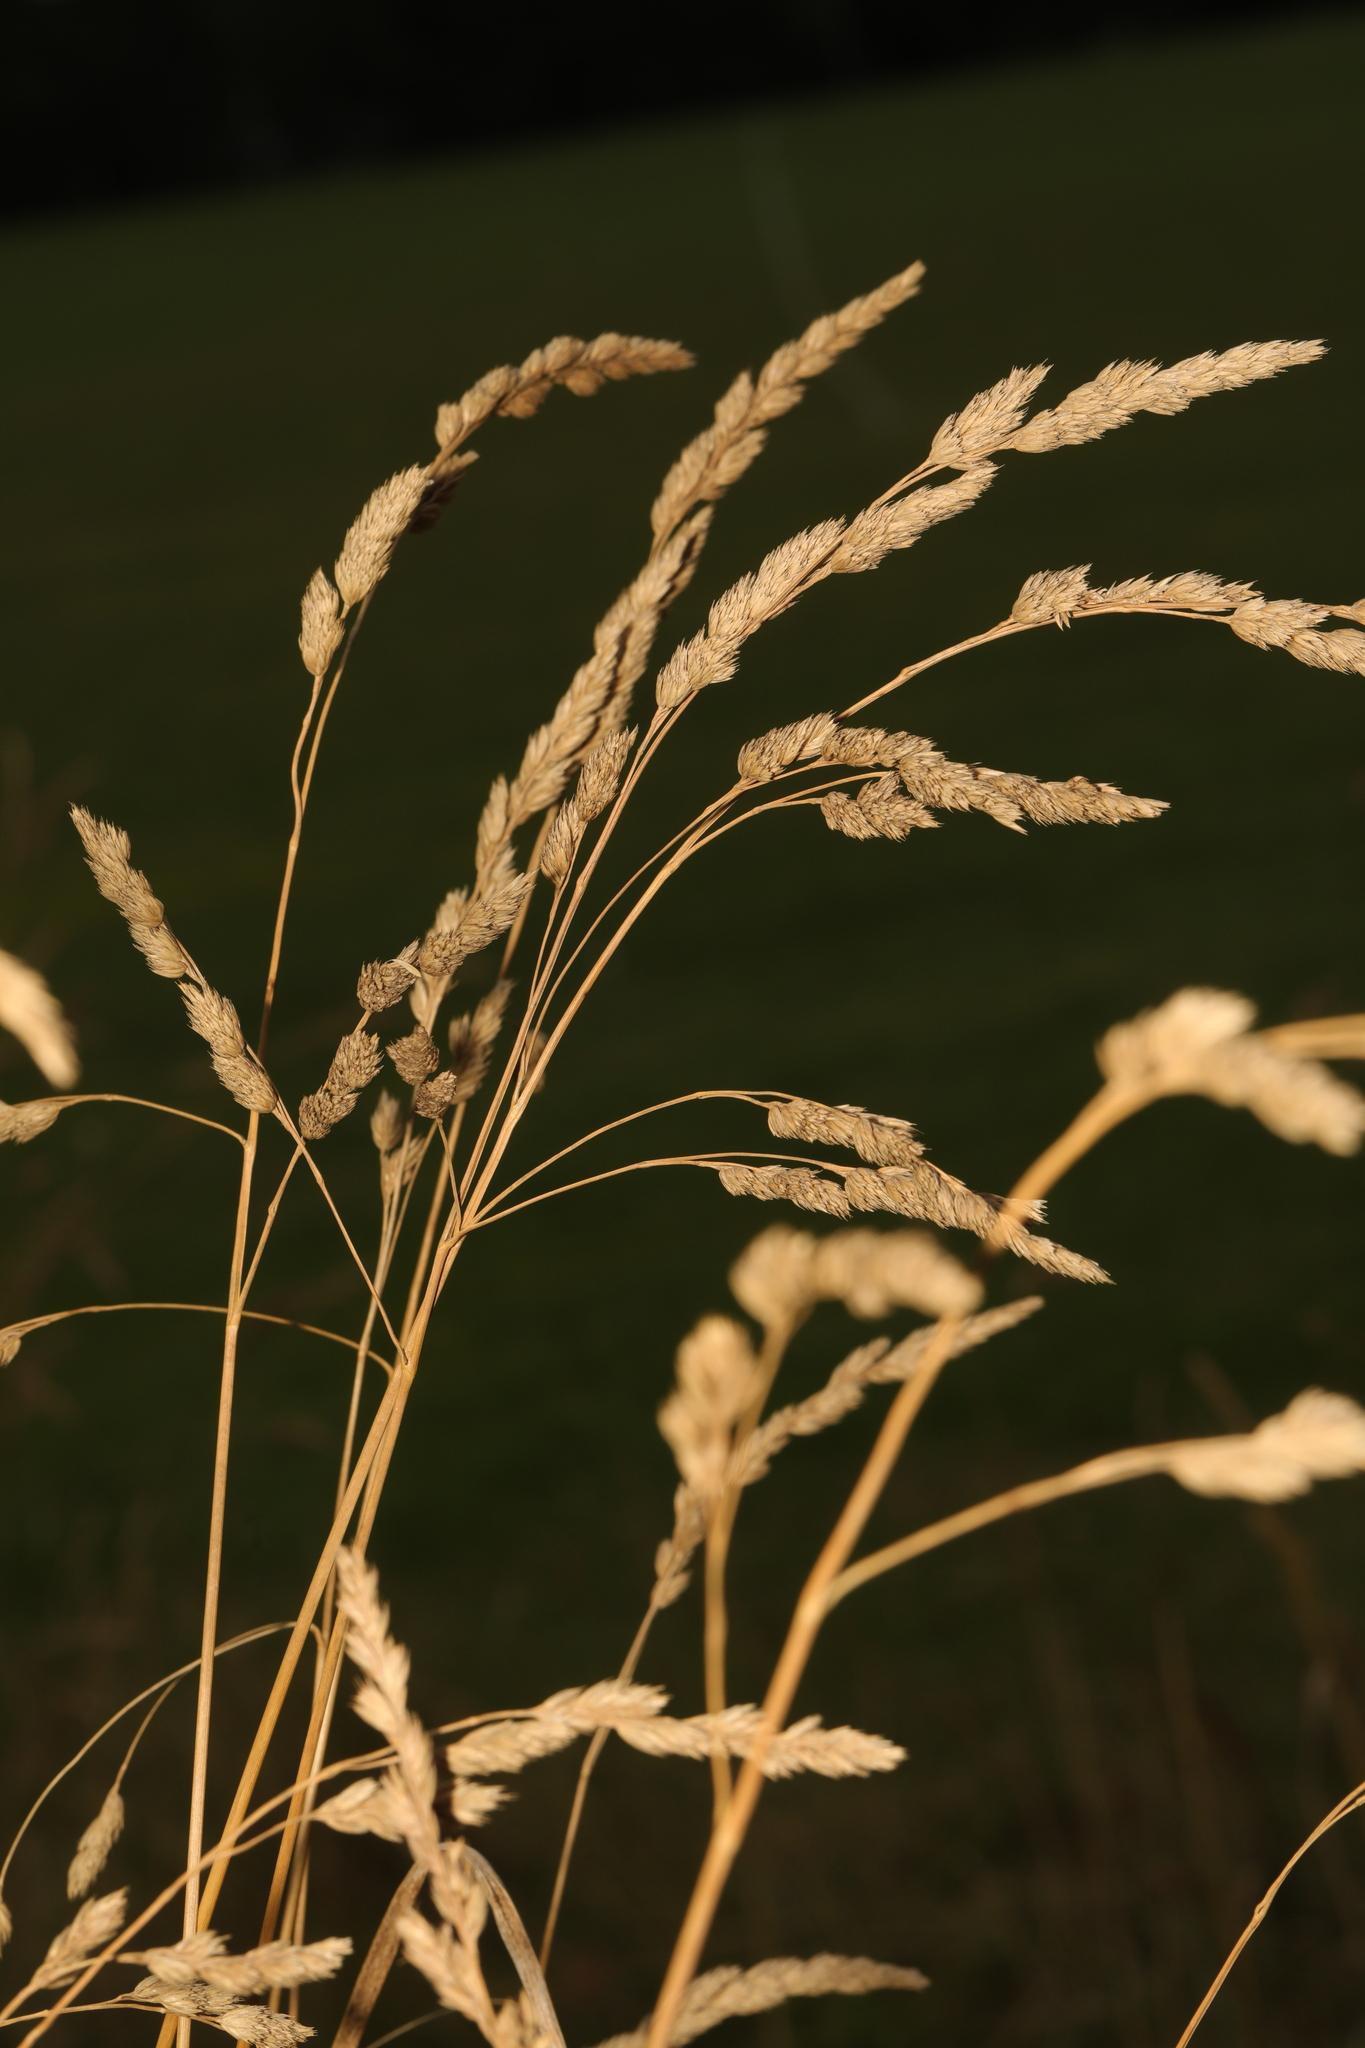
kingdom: Plantae
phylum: Tracheophyta
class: Liliopsida
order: Poales
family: Poaceae
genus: Dactylis
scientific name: Dactylis glomerata
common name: Orchardgrass
